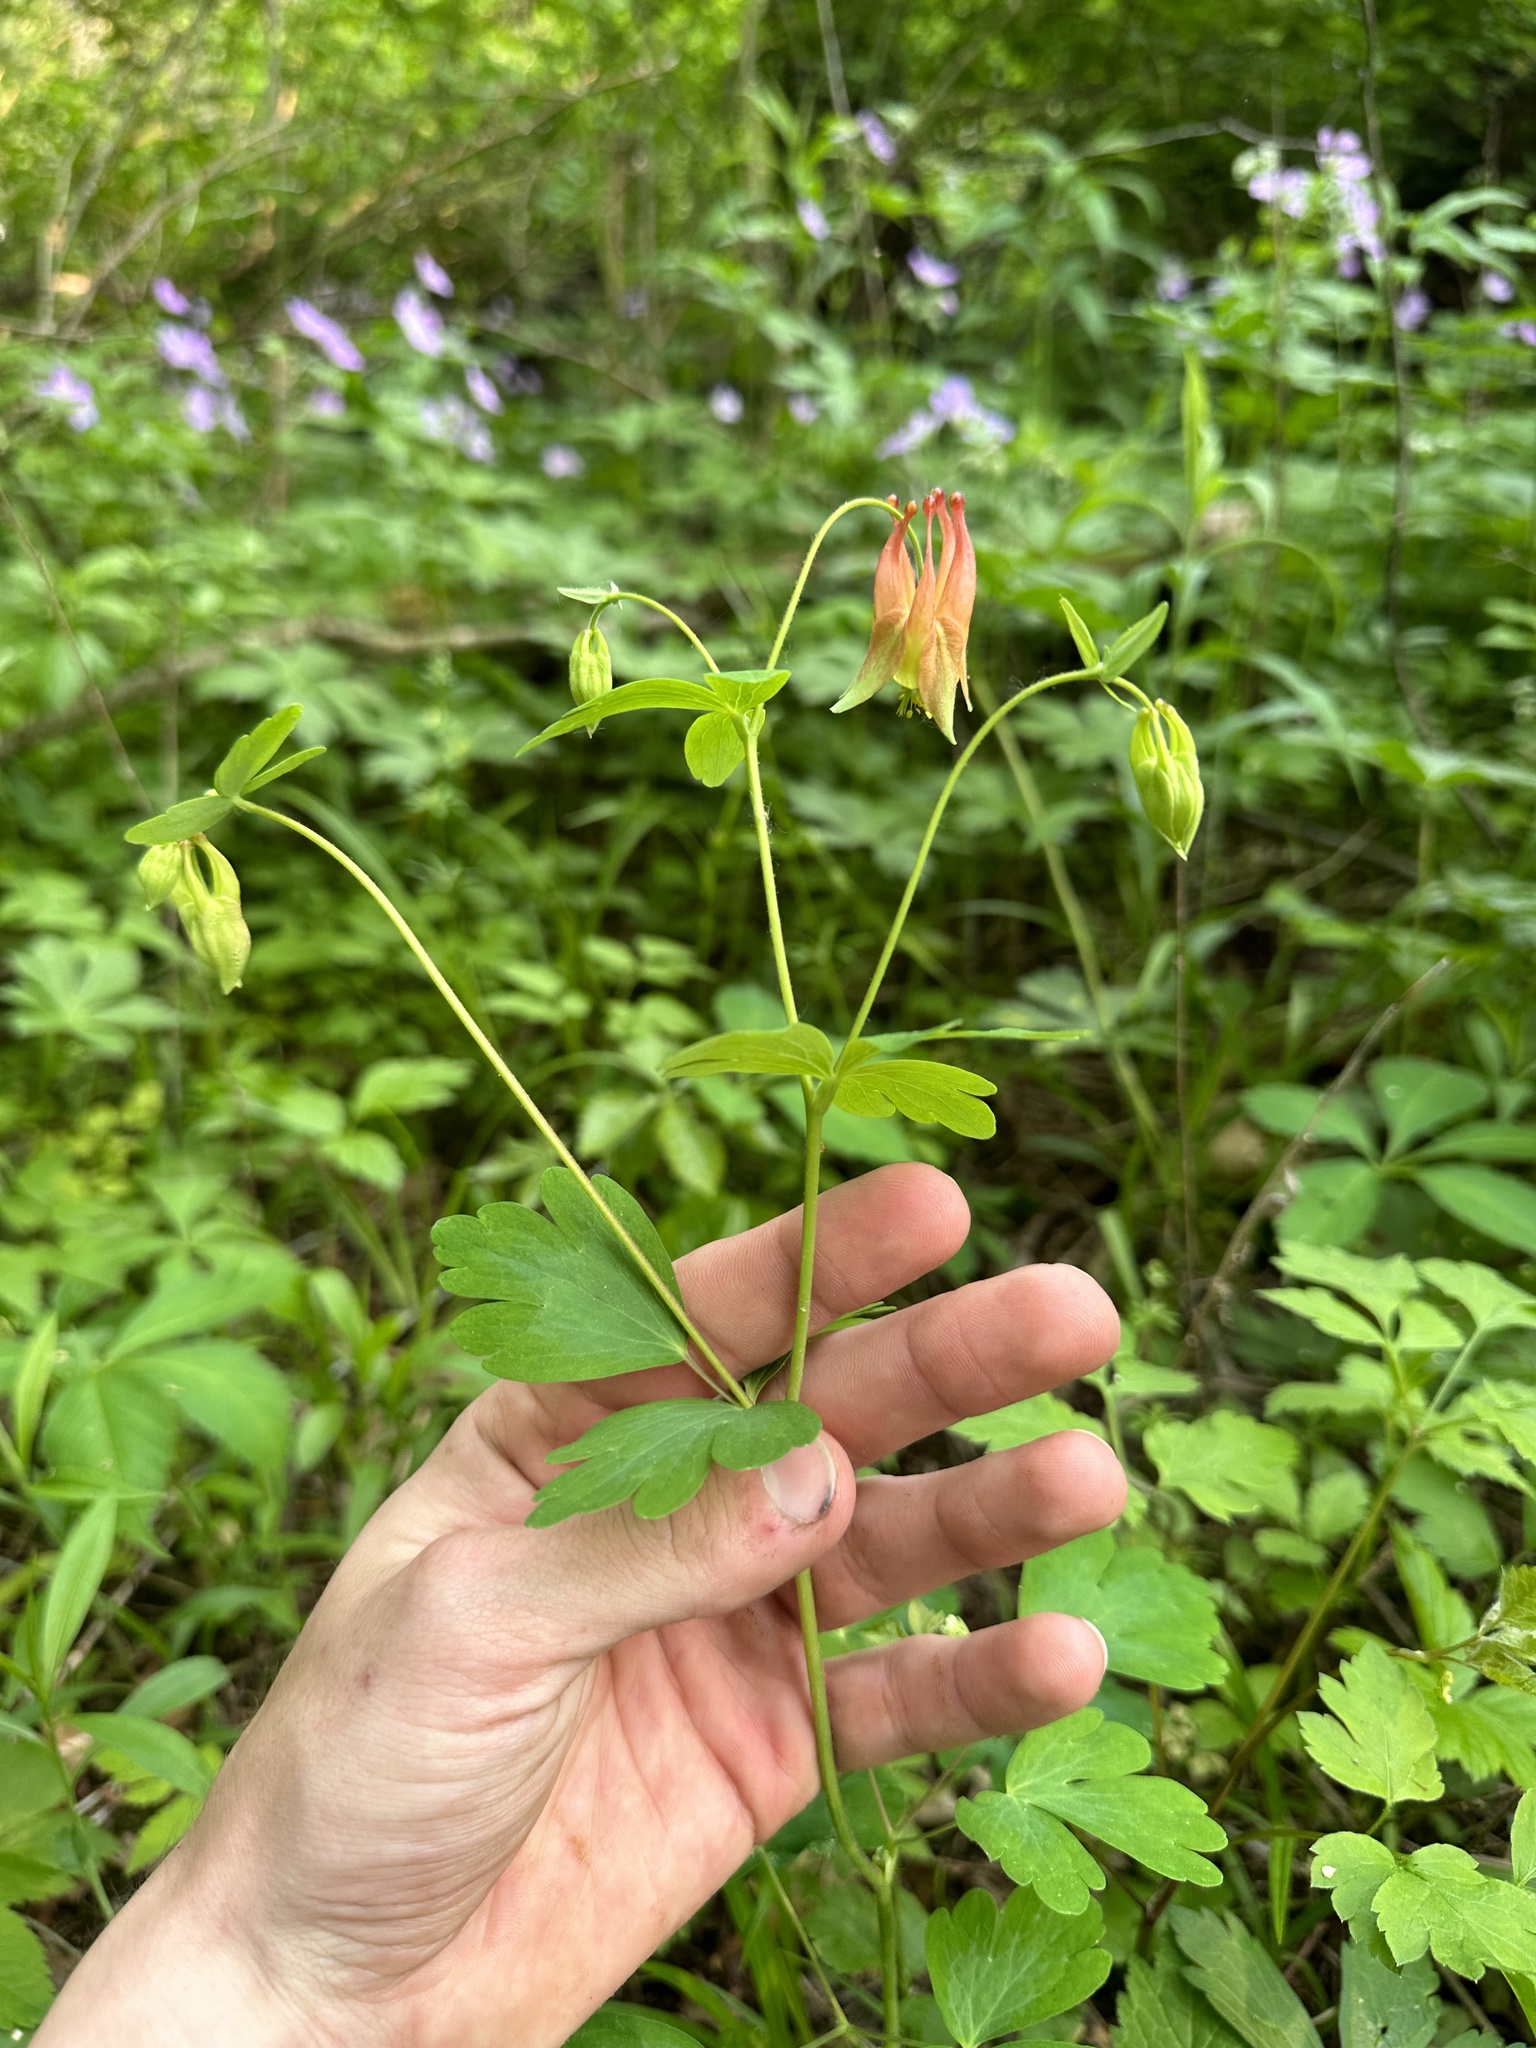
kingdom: Plantae
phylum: Tracheophyta
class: Magnoliopsida
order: Ranunculales
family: Ranunculaceae
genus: Aquilegia
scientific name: Aquilegia canadensis
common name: American columbine
